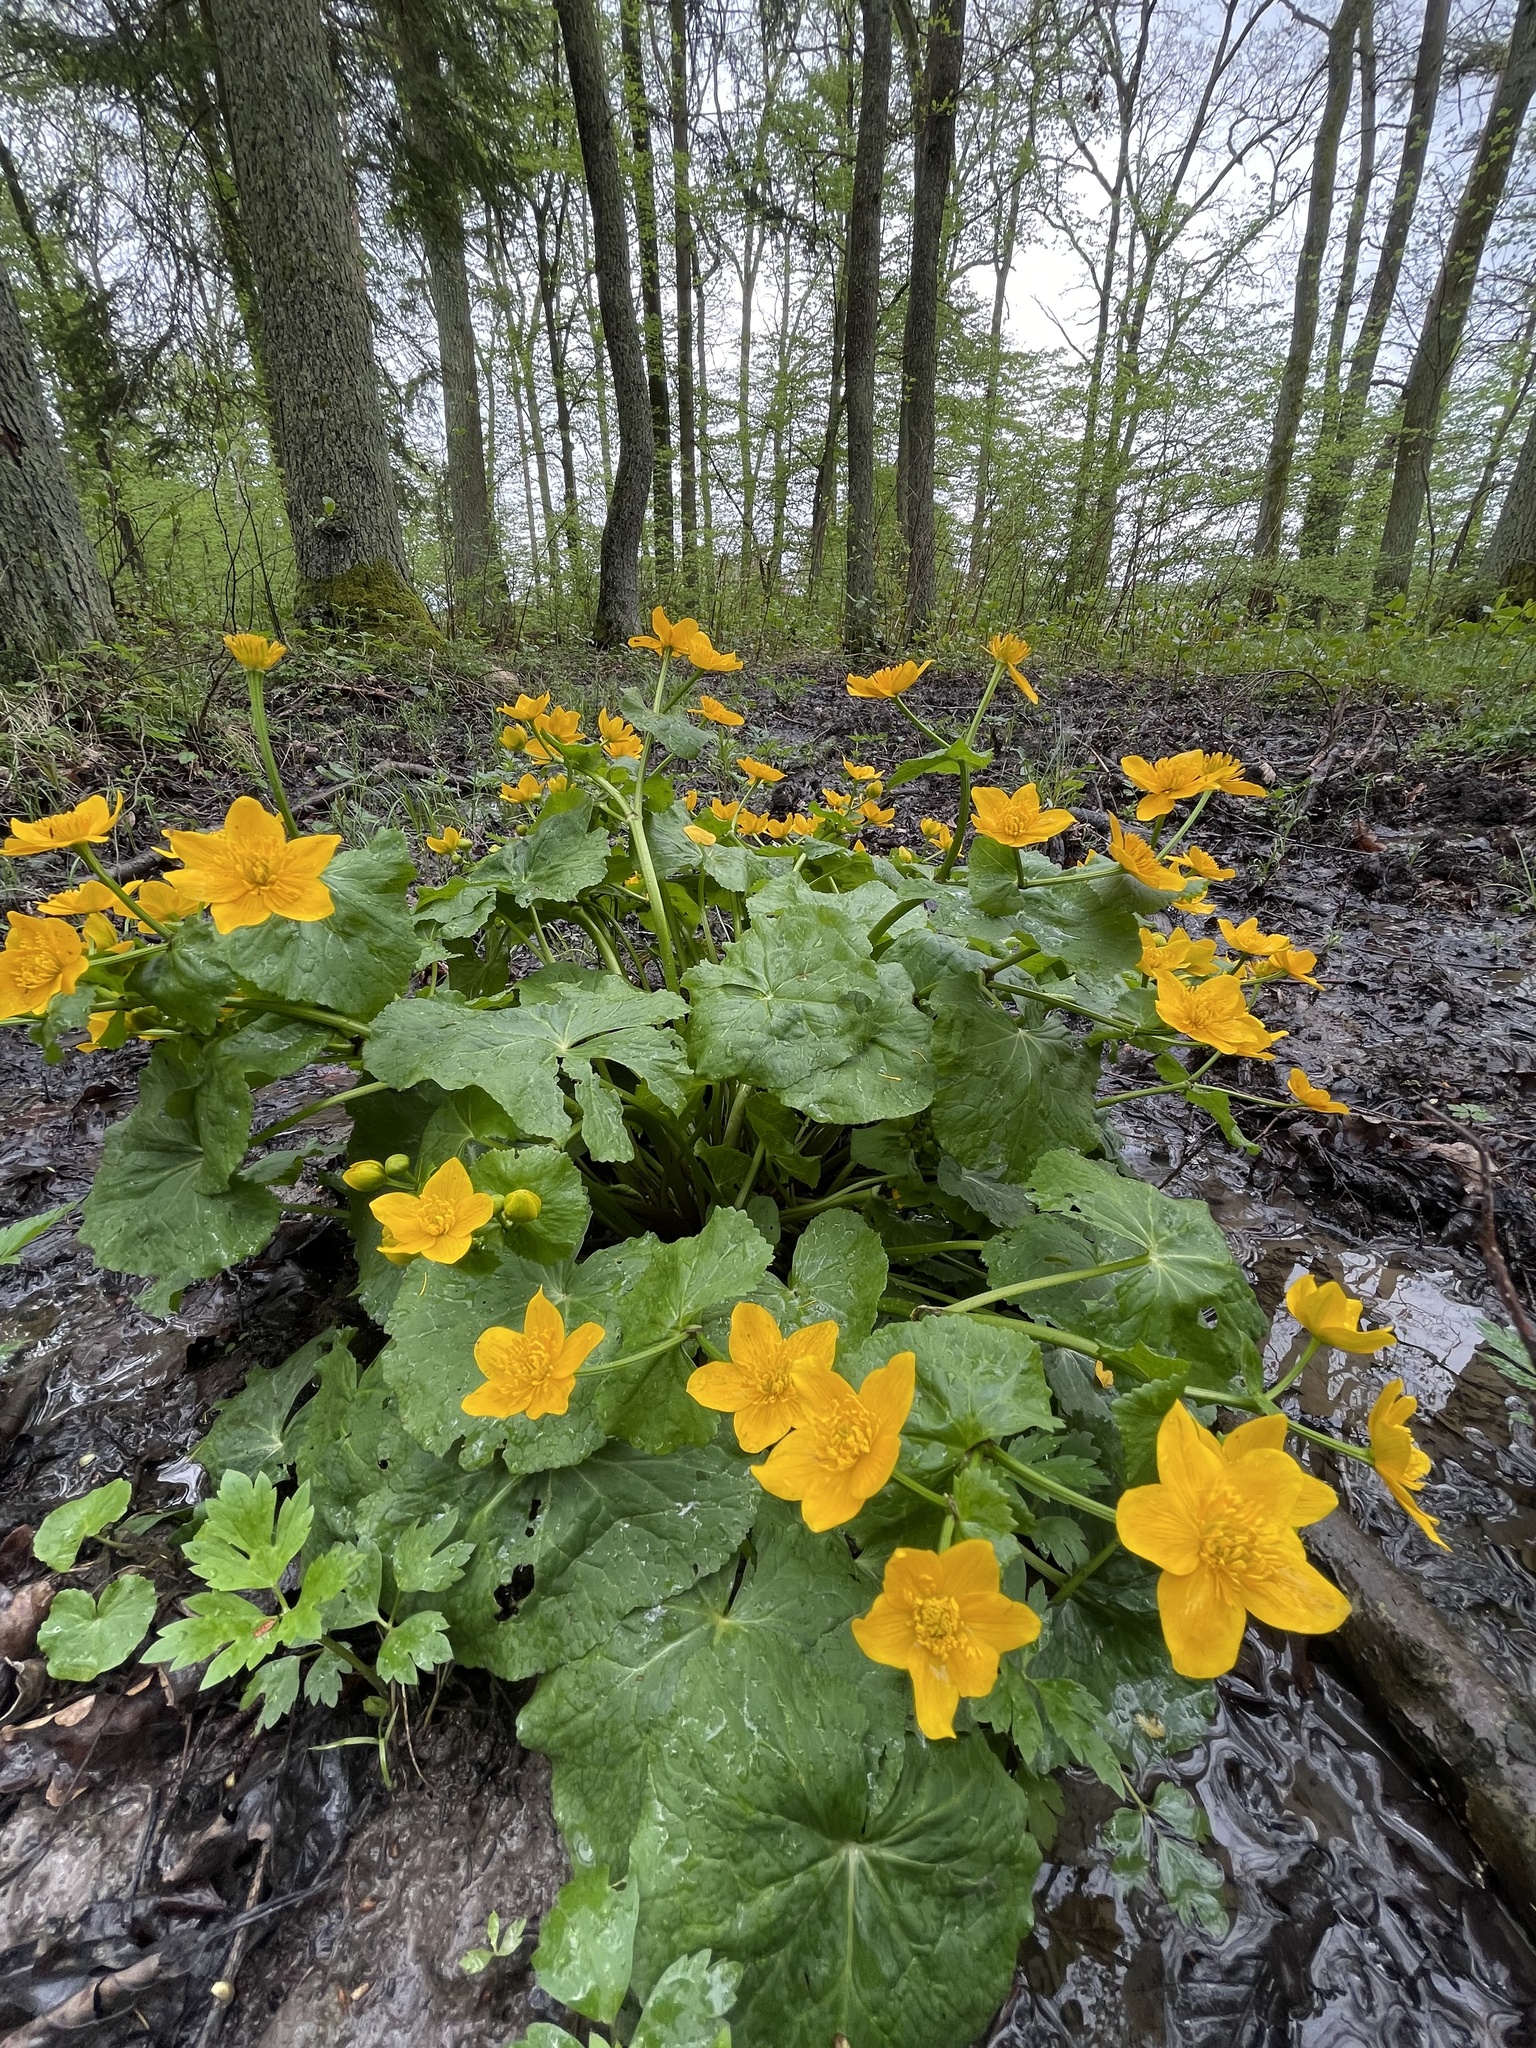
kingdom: Plantae
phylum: Tracheophyta
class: Magnoliopsida
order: Ranunculales
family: Ranunculaceae
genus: Caltha
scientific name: Caltha palustris
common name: Marsh marigold
